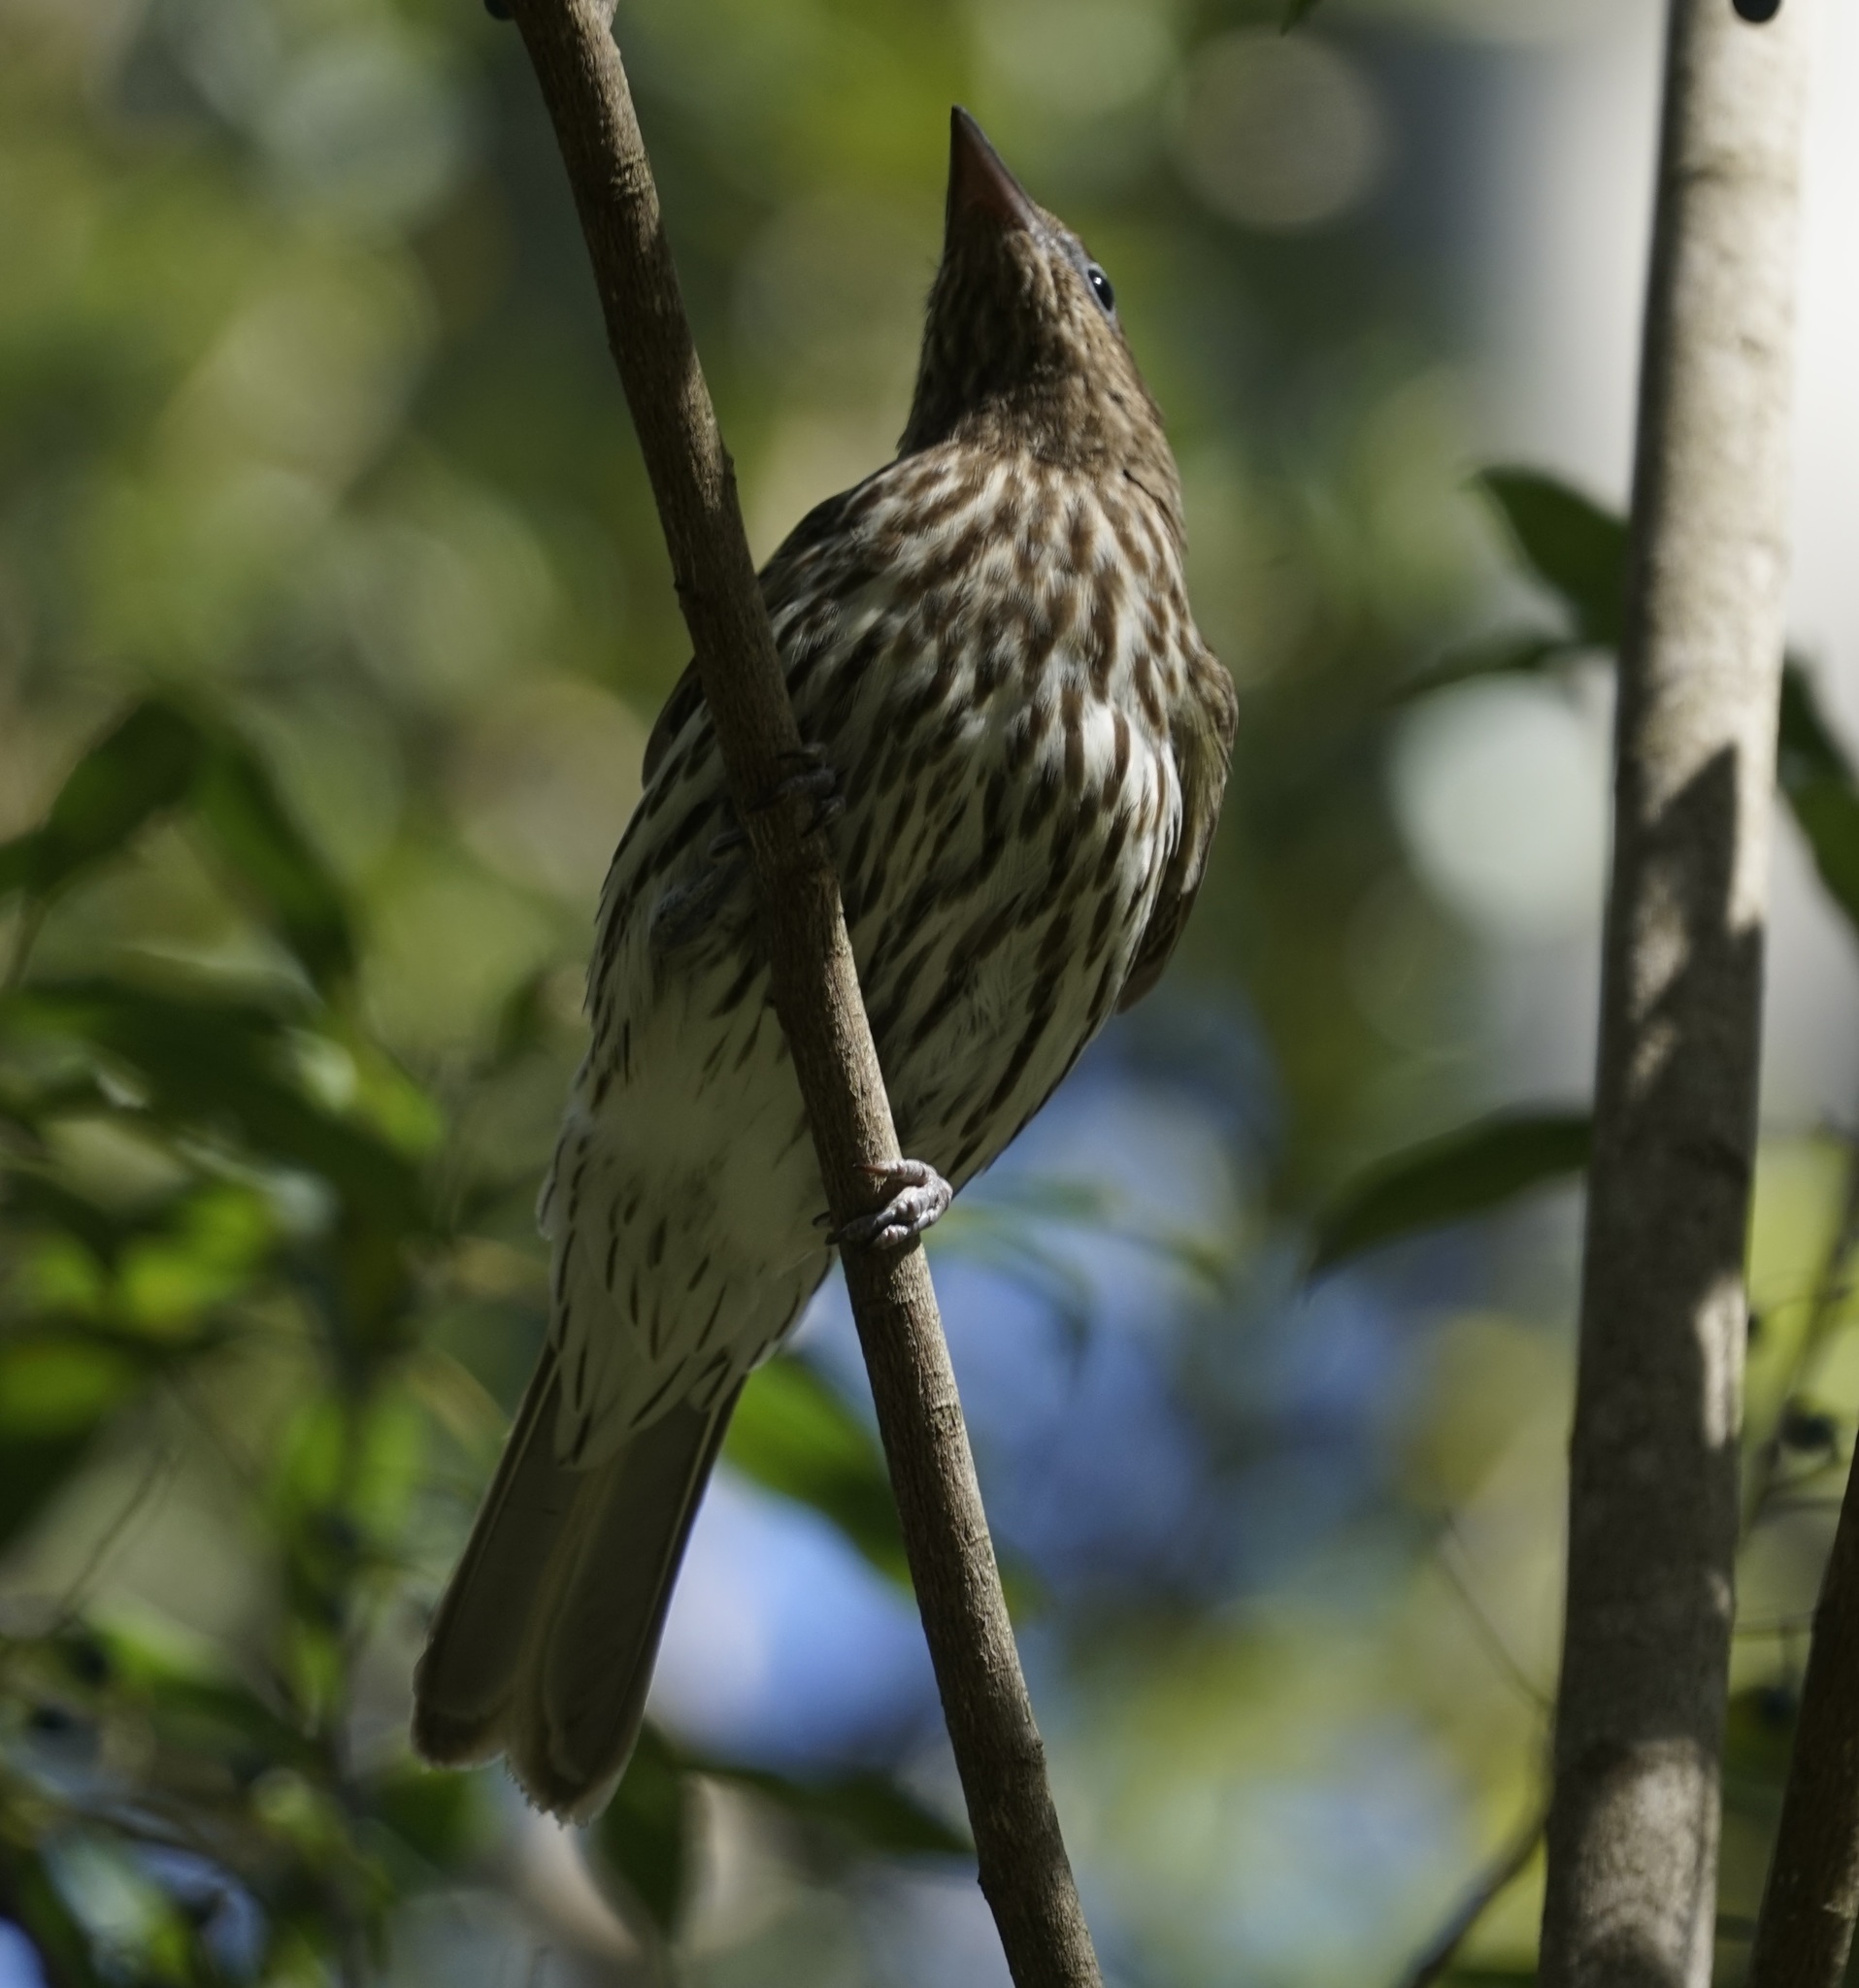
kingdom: Animalia
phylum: Chordata
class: Aves
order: Passeriformes
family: Oriolidae
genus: Sphecotheres
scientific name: Sphecotheres vieilloti
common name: Australasian figbird
